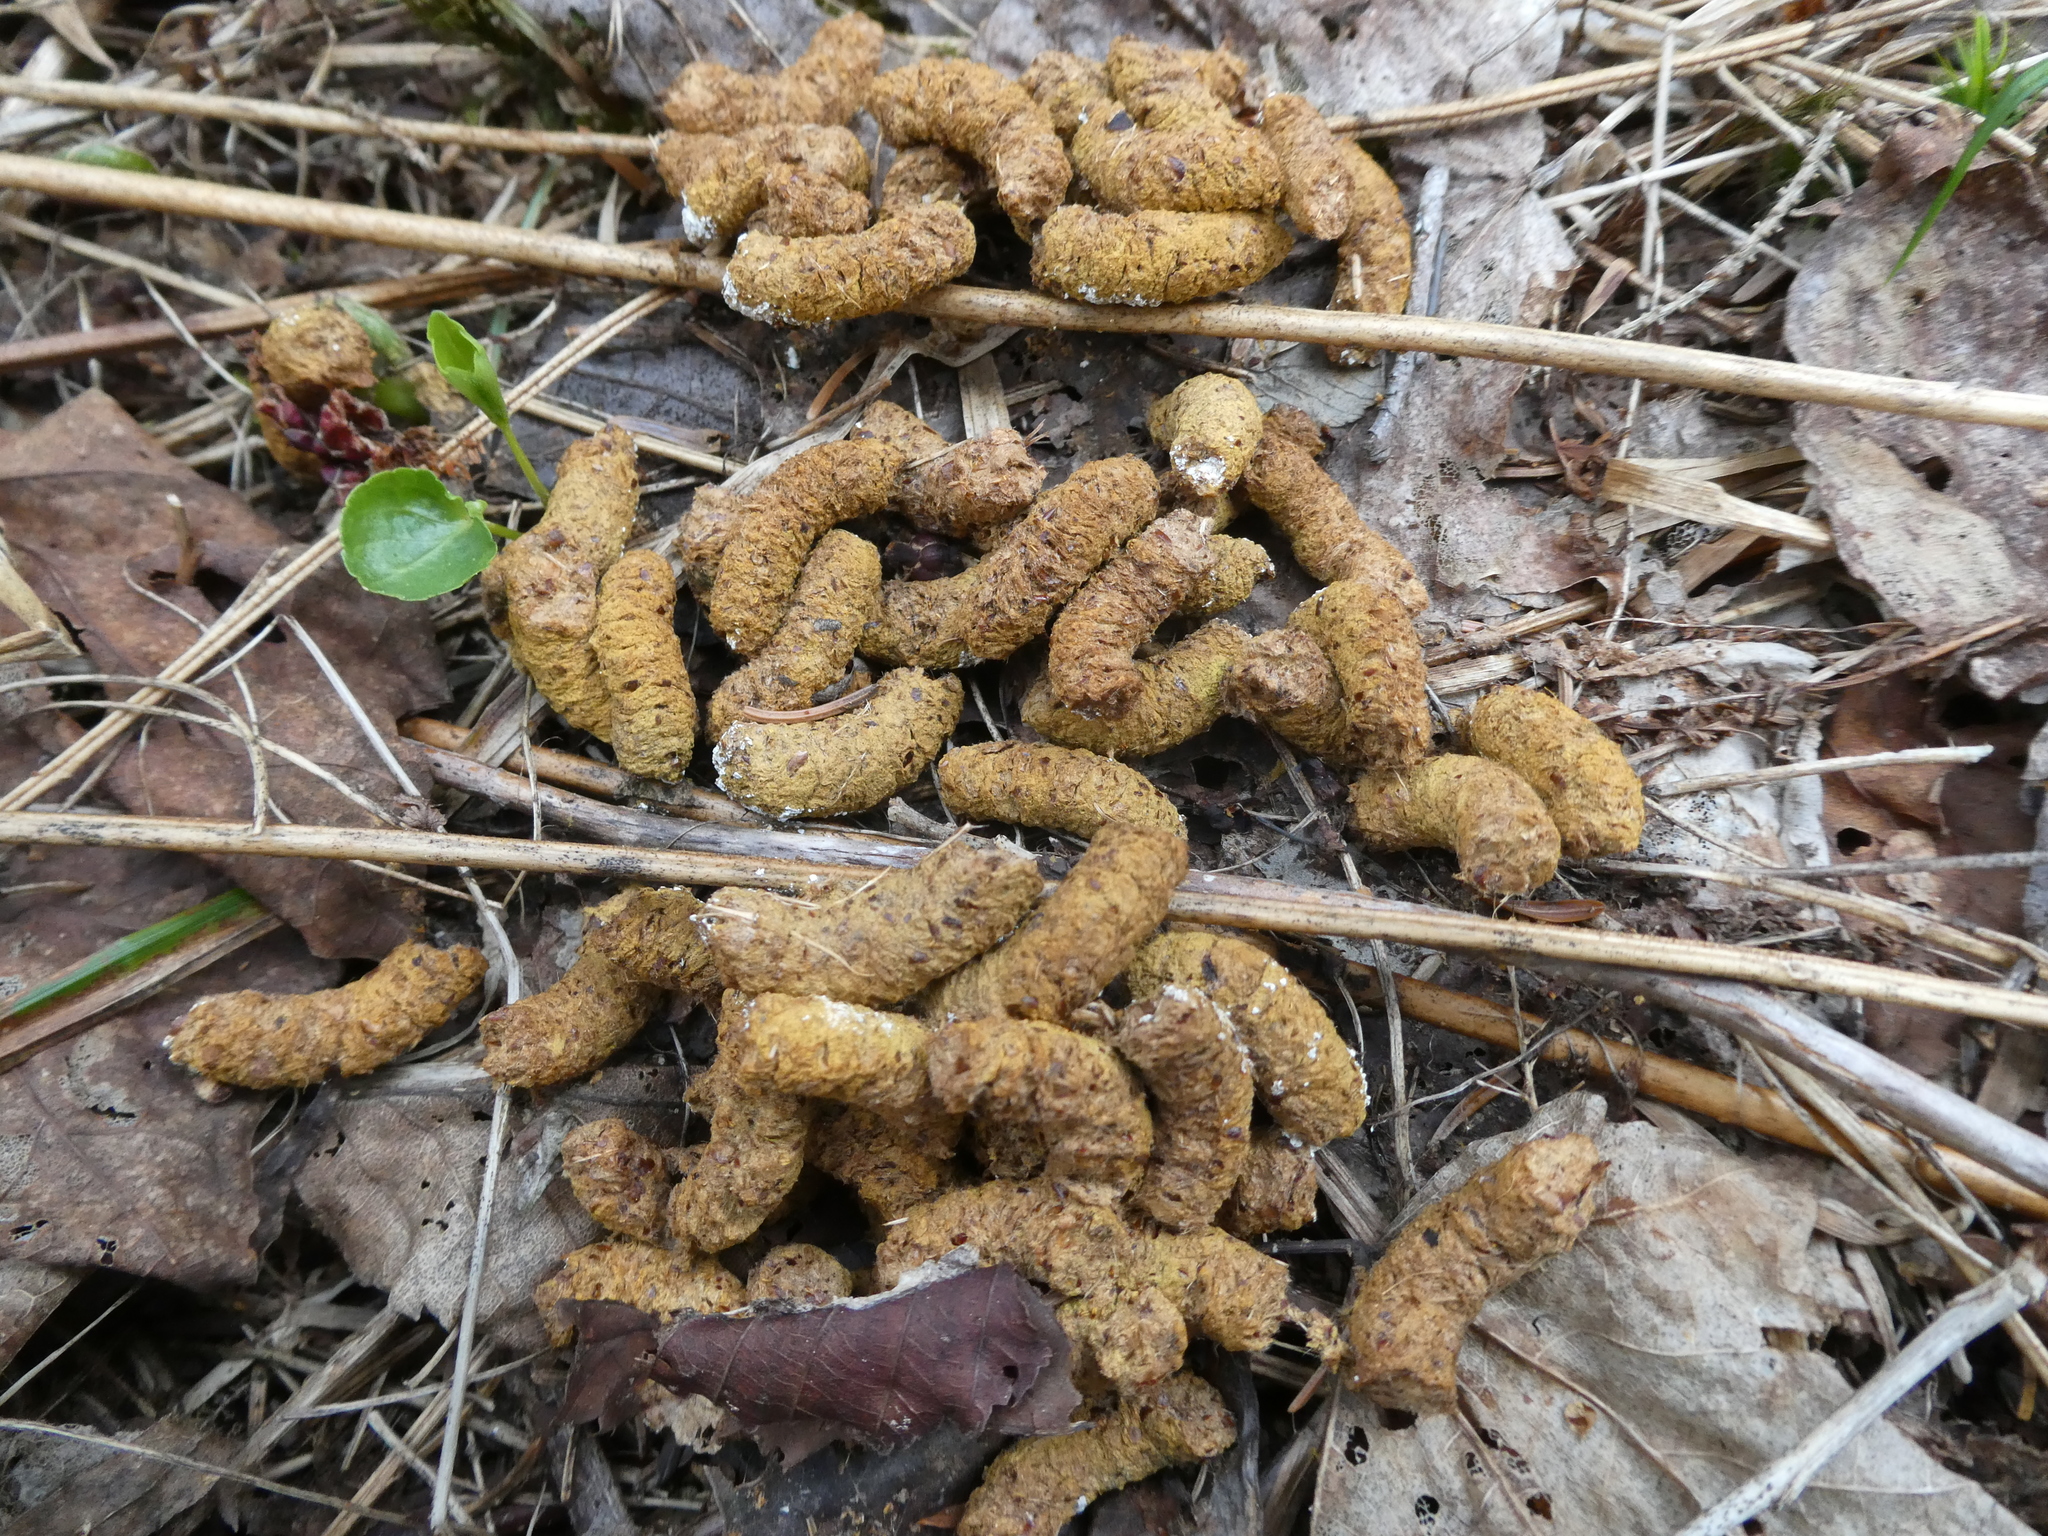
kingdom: Animalia
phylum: Chordata
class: Aves
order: Galliformes
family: Phasianidae
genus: Bonasa
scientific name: Bonasa umbellus
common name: Ruffed grouse
